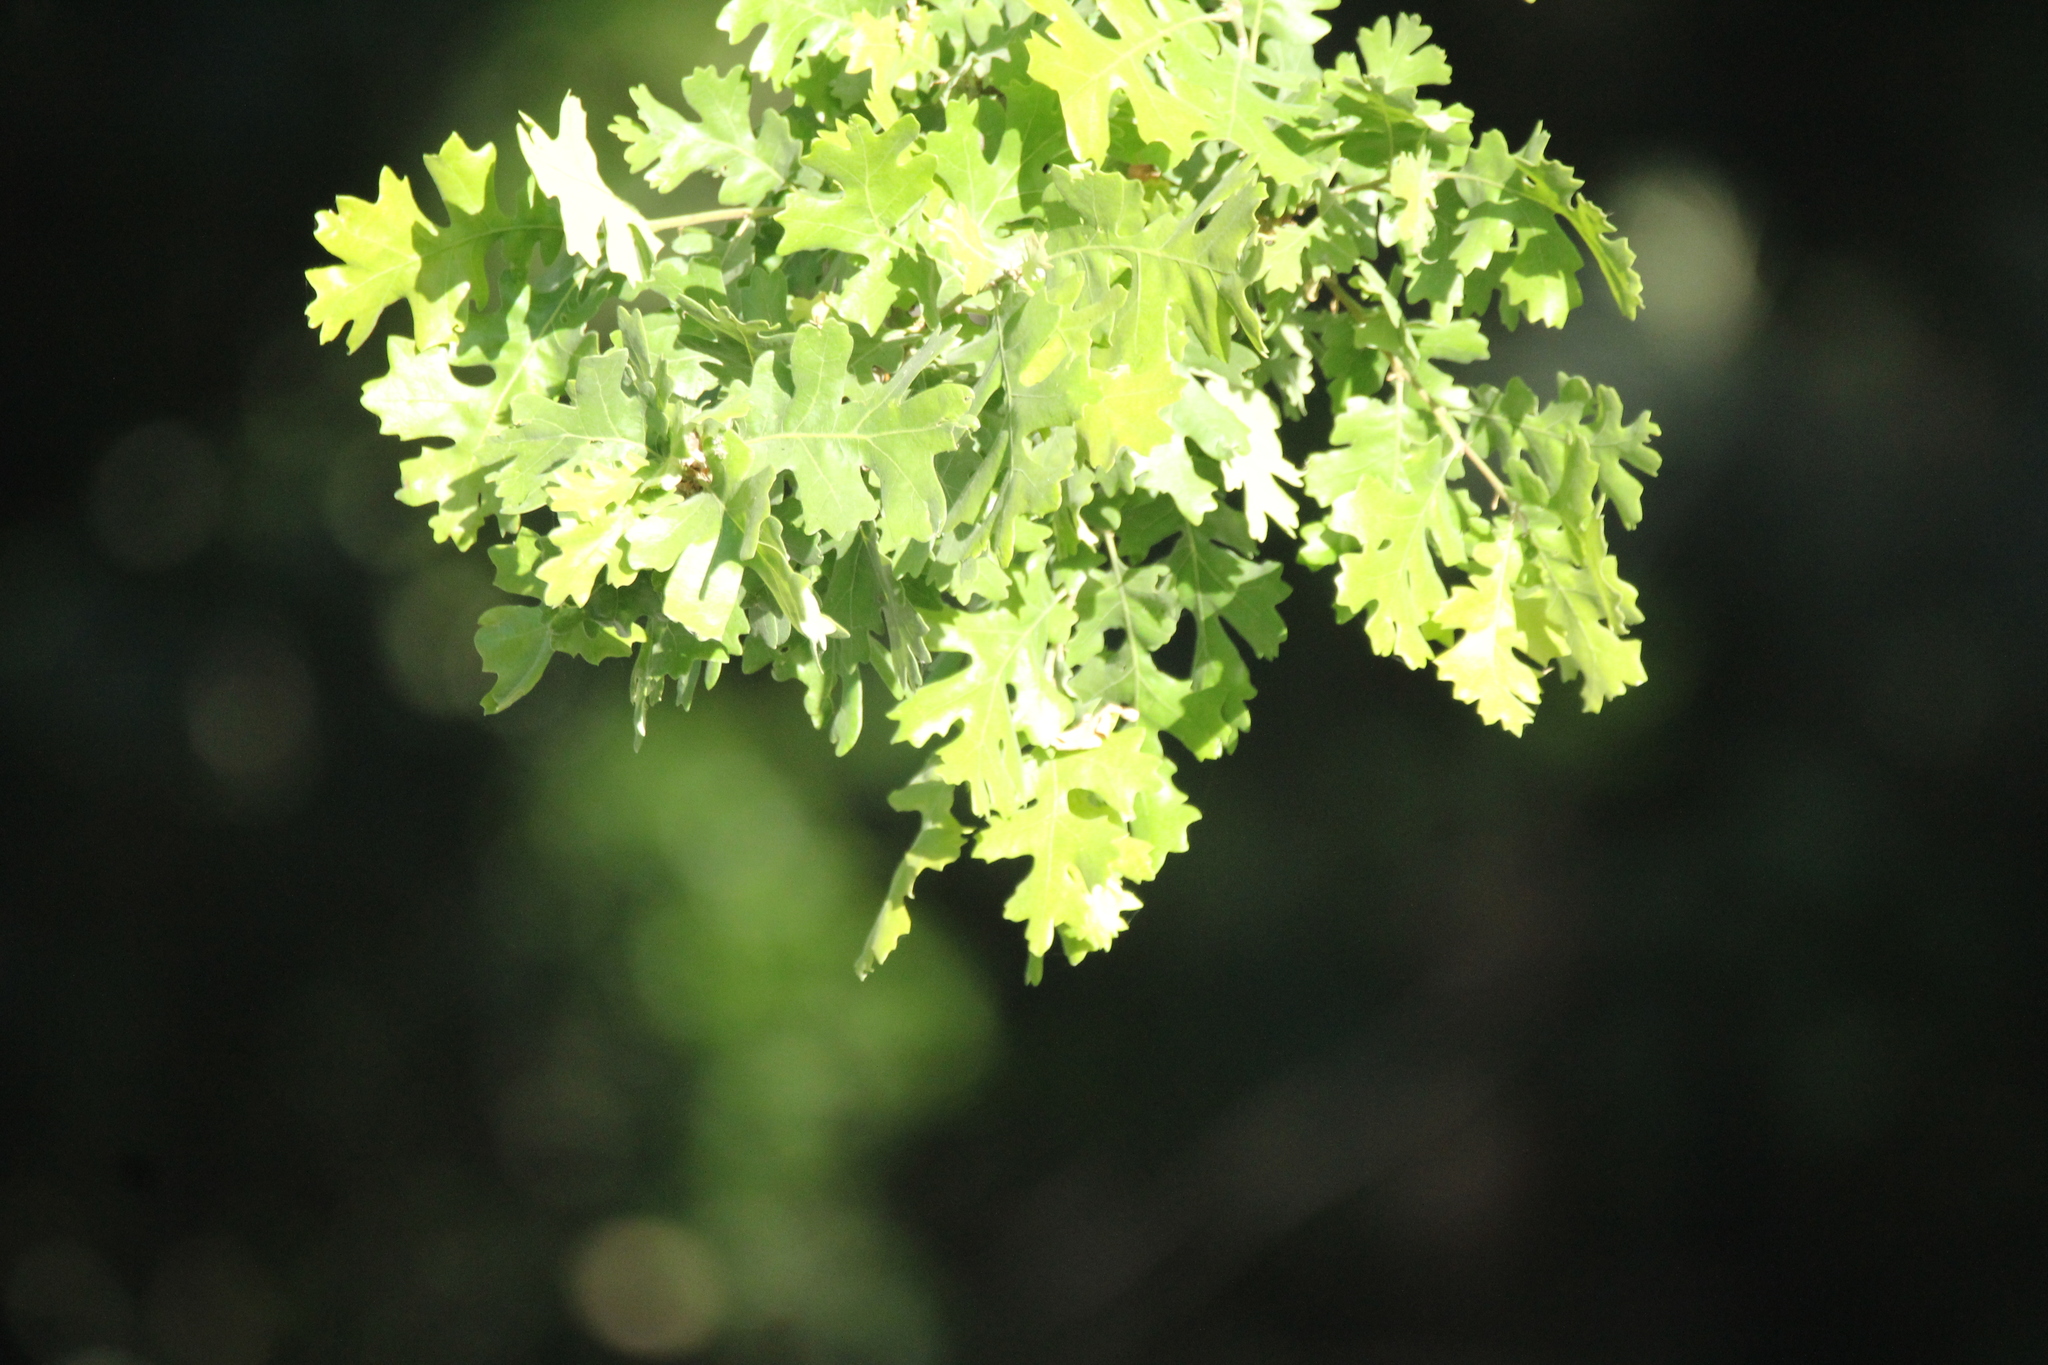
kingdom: Plantae
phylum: Tracheophyta
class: Magnoliopsida
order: Fagales
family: Fagaceae
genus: Quercus
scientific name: Quercus lobata
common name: Valley oak
